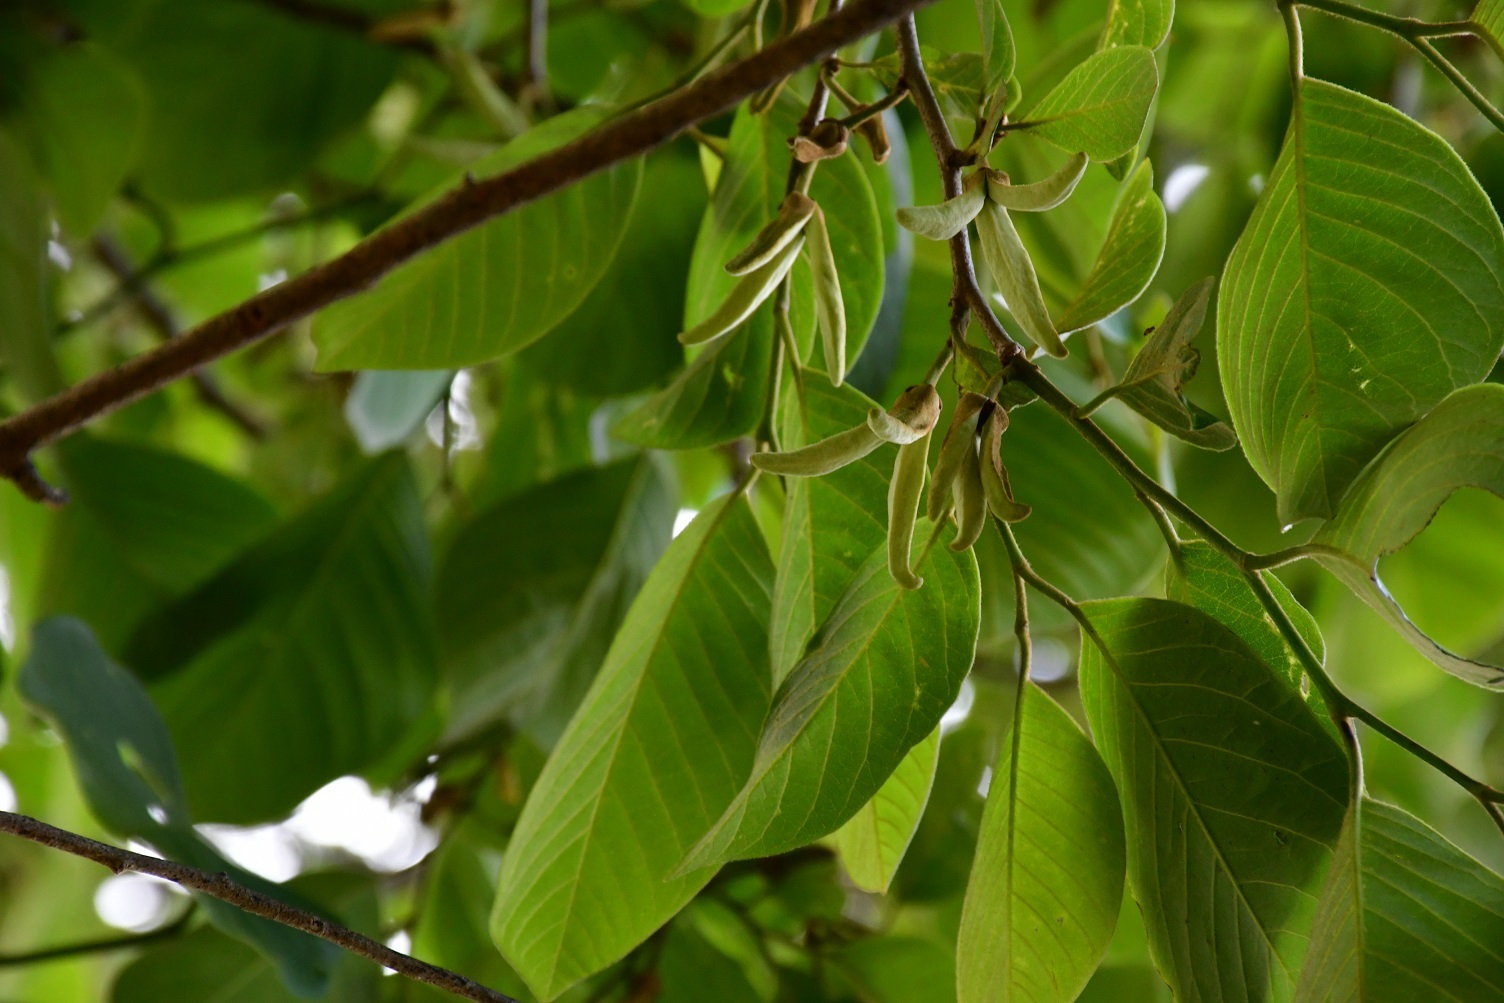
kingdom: Plantae
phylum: Tracheophyta
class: Magnoliopsida
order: Magnoliales
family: Annonaceae
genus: Annona
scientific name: Annona cherimola
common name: Cherimoya
